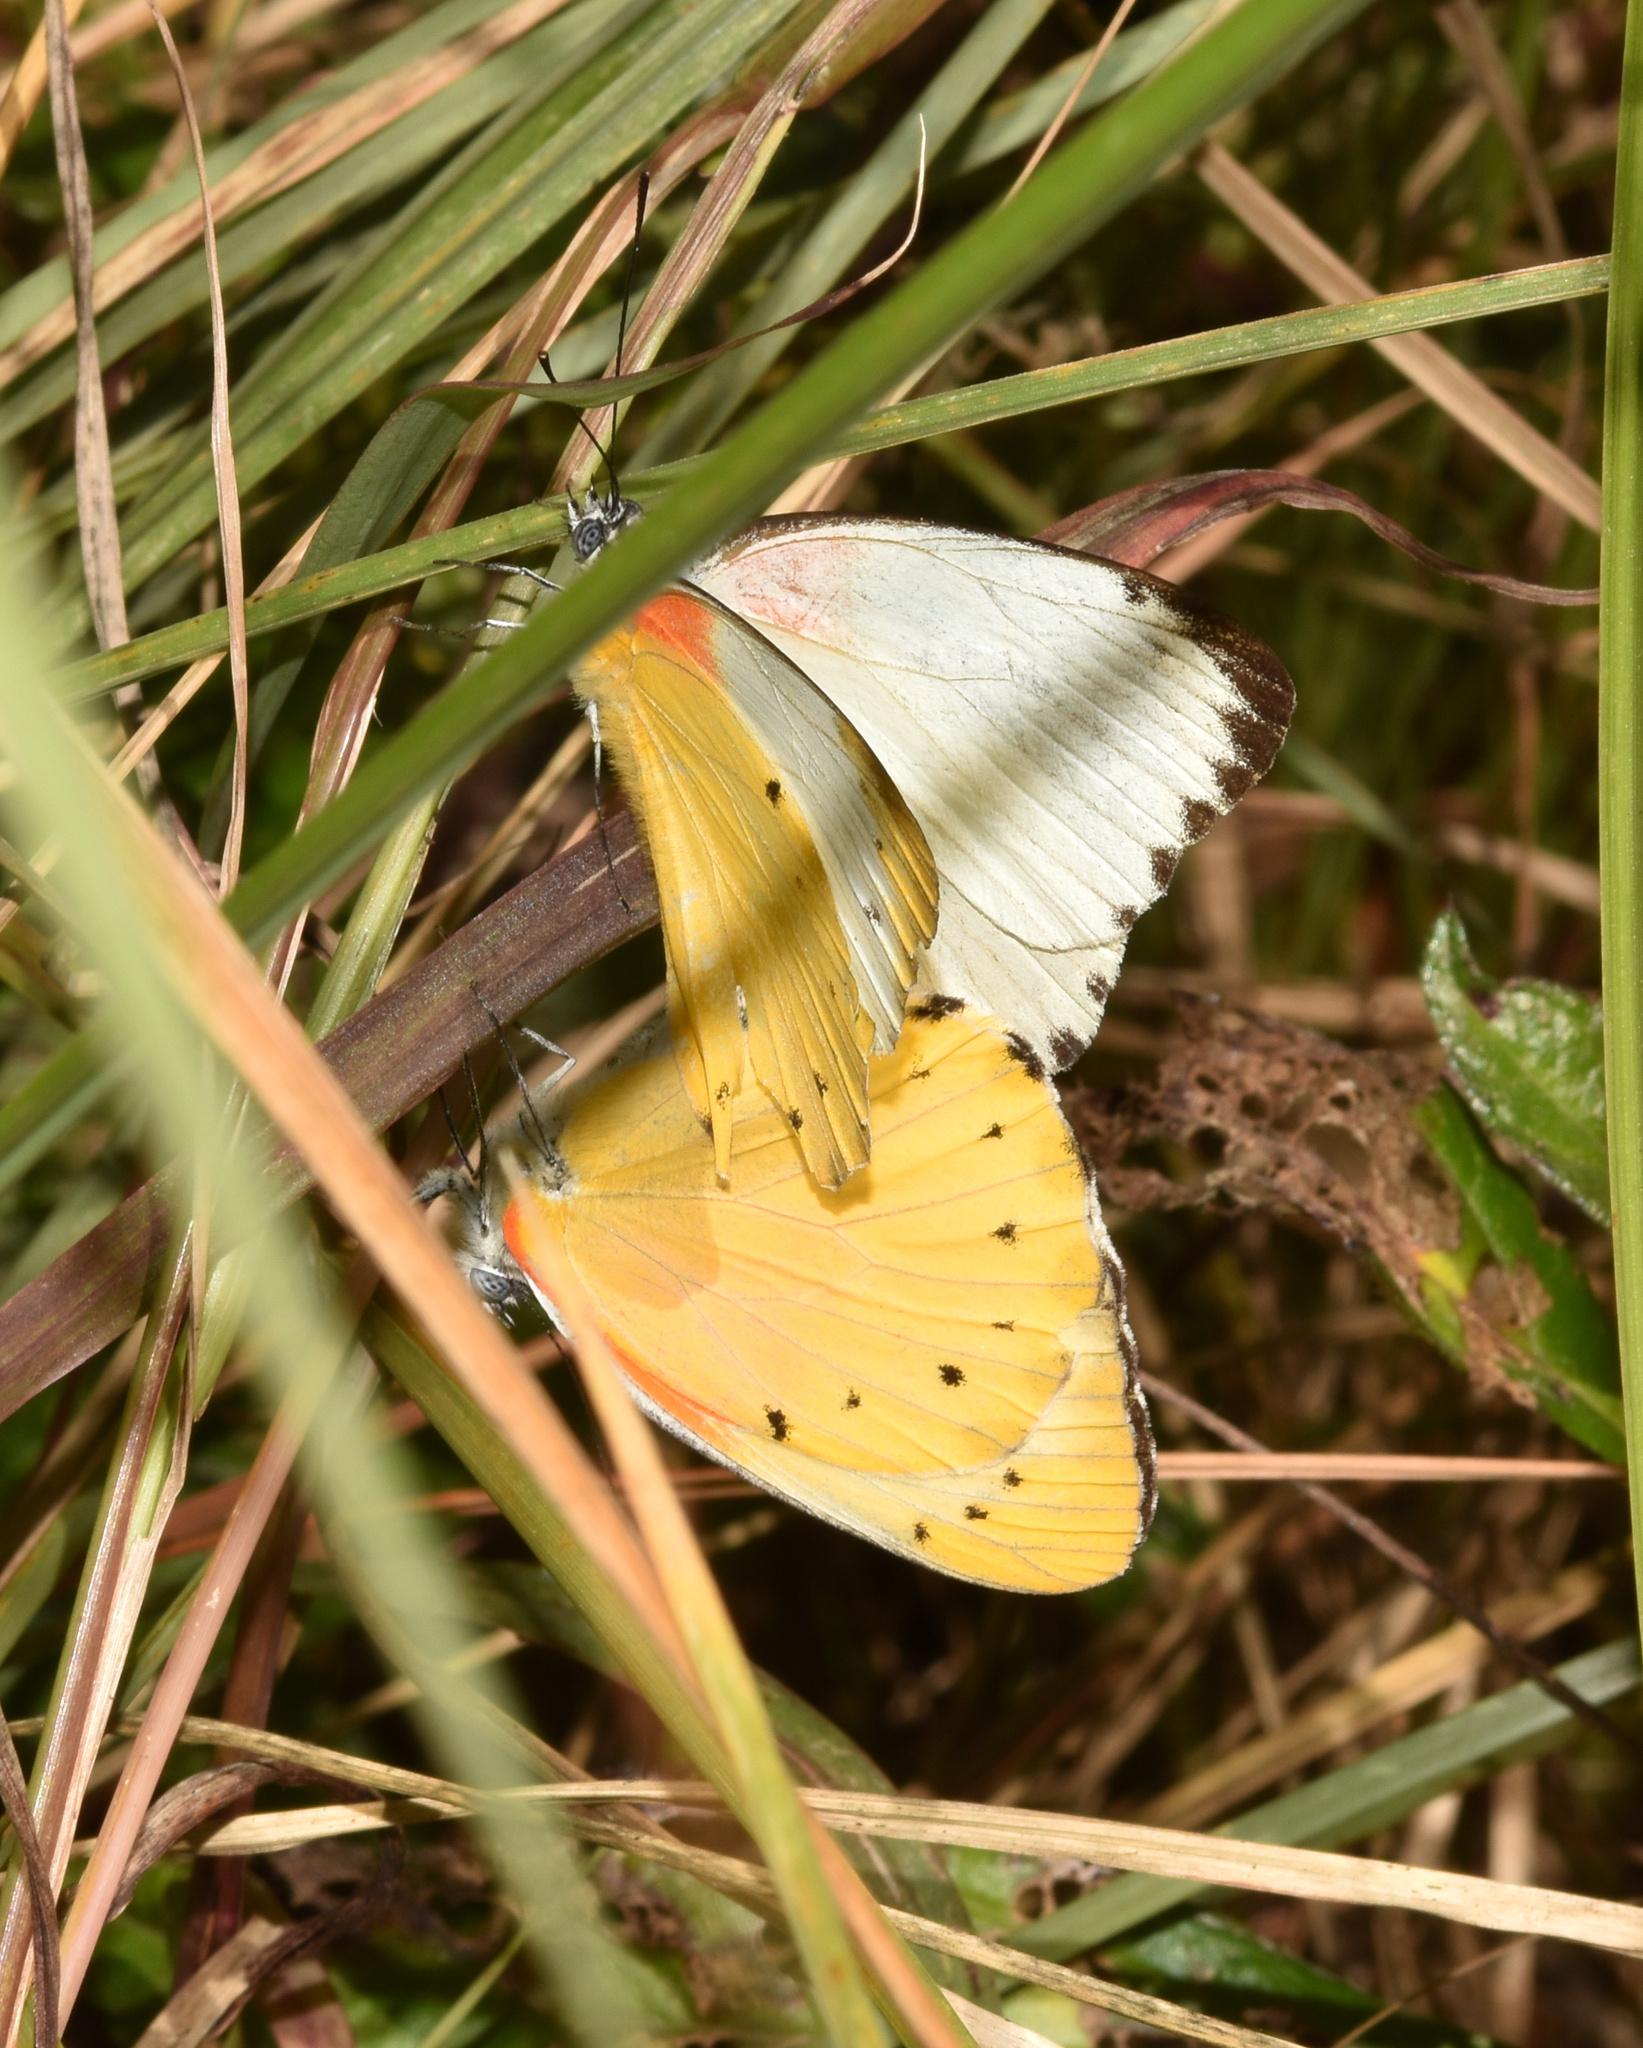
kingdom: Animalia
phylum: Arthropoda
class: Insecta
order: Lepidoptera
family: Pieridae
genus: Belenois
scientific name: Belenois thysa
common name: False dotted border
